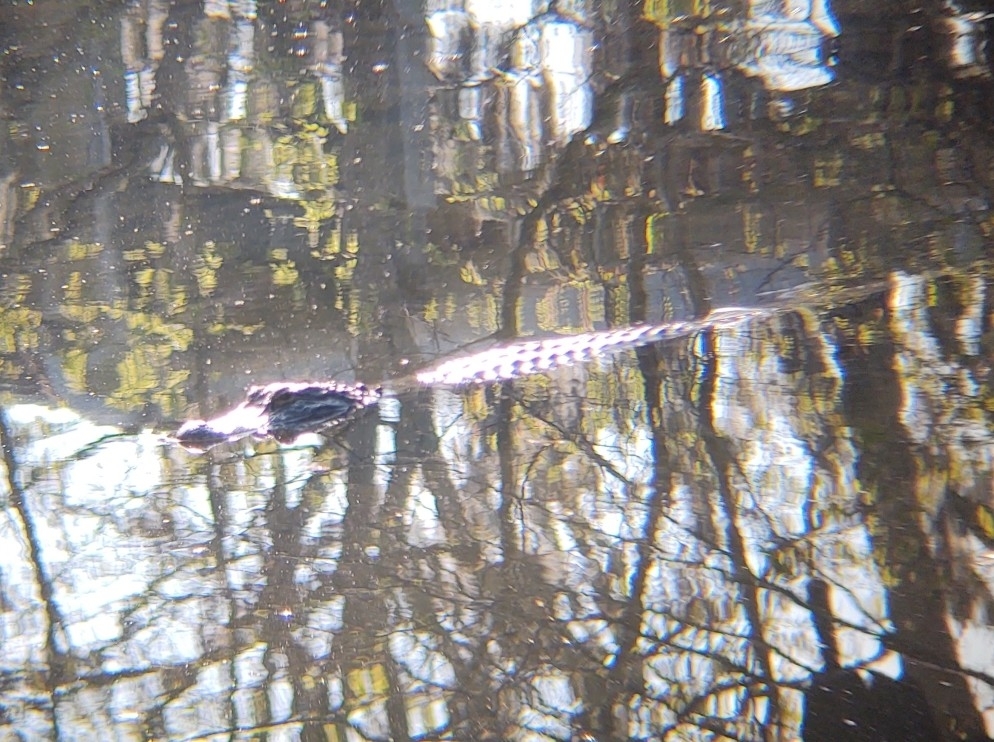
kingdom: Animalia
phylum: Chordata
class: Crocodylia
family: Alligatoridae
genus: Alligator
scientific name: Alligator mississippiensis
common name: American alligator
